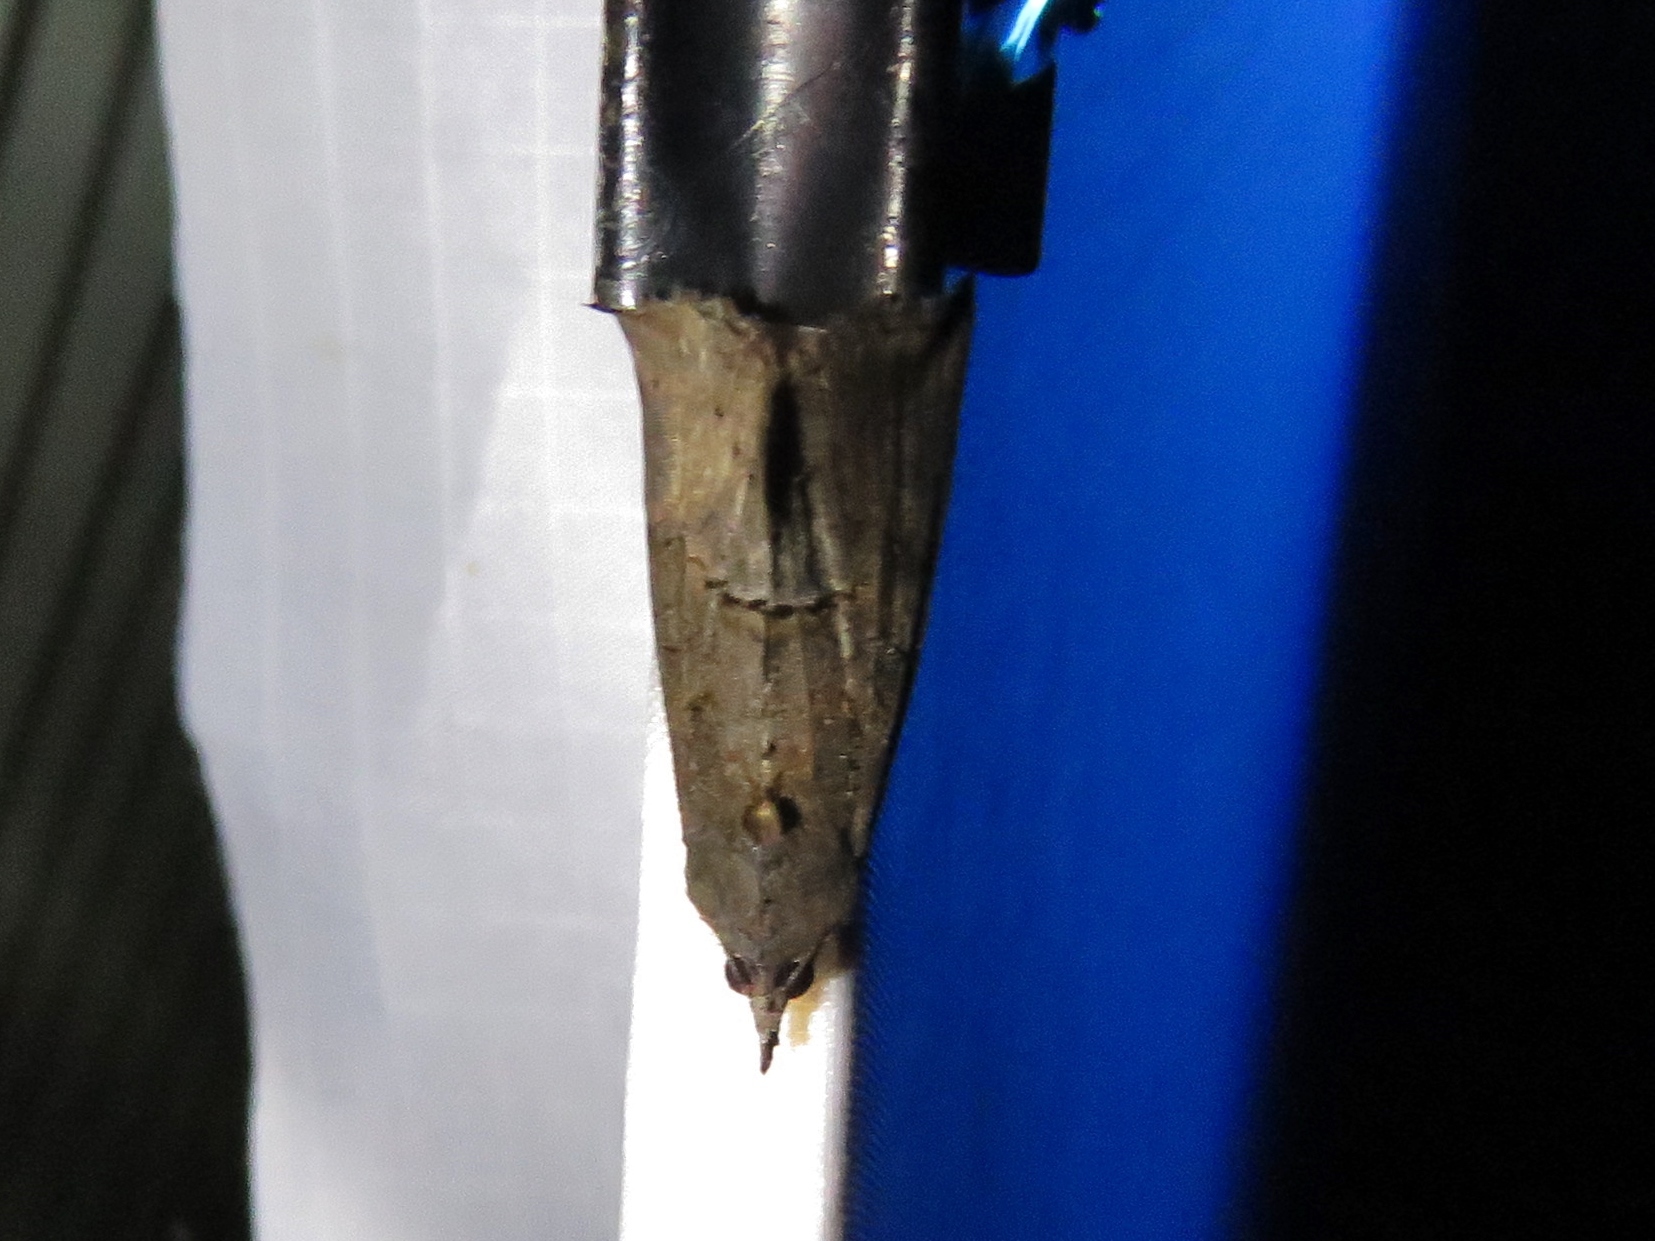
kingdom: Animalia
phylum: Arthropoda
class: Insecta
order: Lepidoptera
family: Erebidae
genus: Hypena
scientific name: Hypena scabra
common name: Green cloverworm
